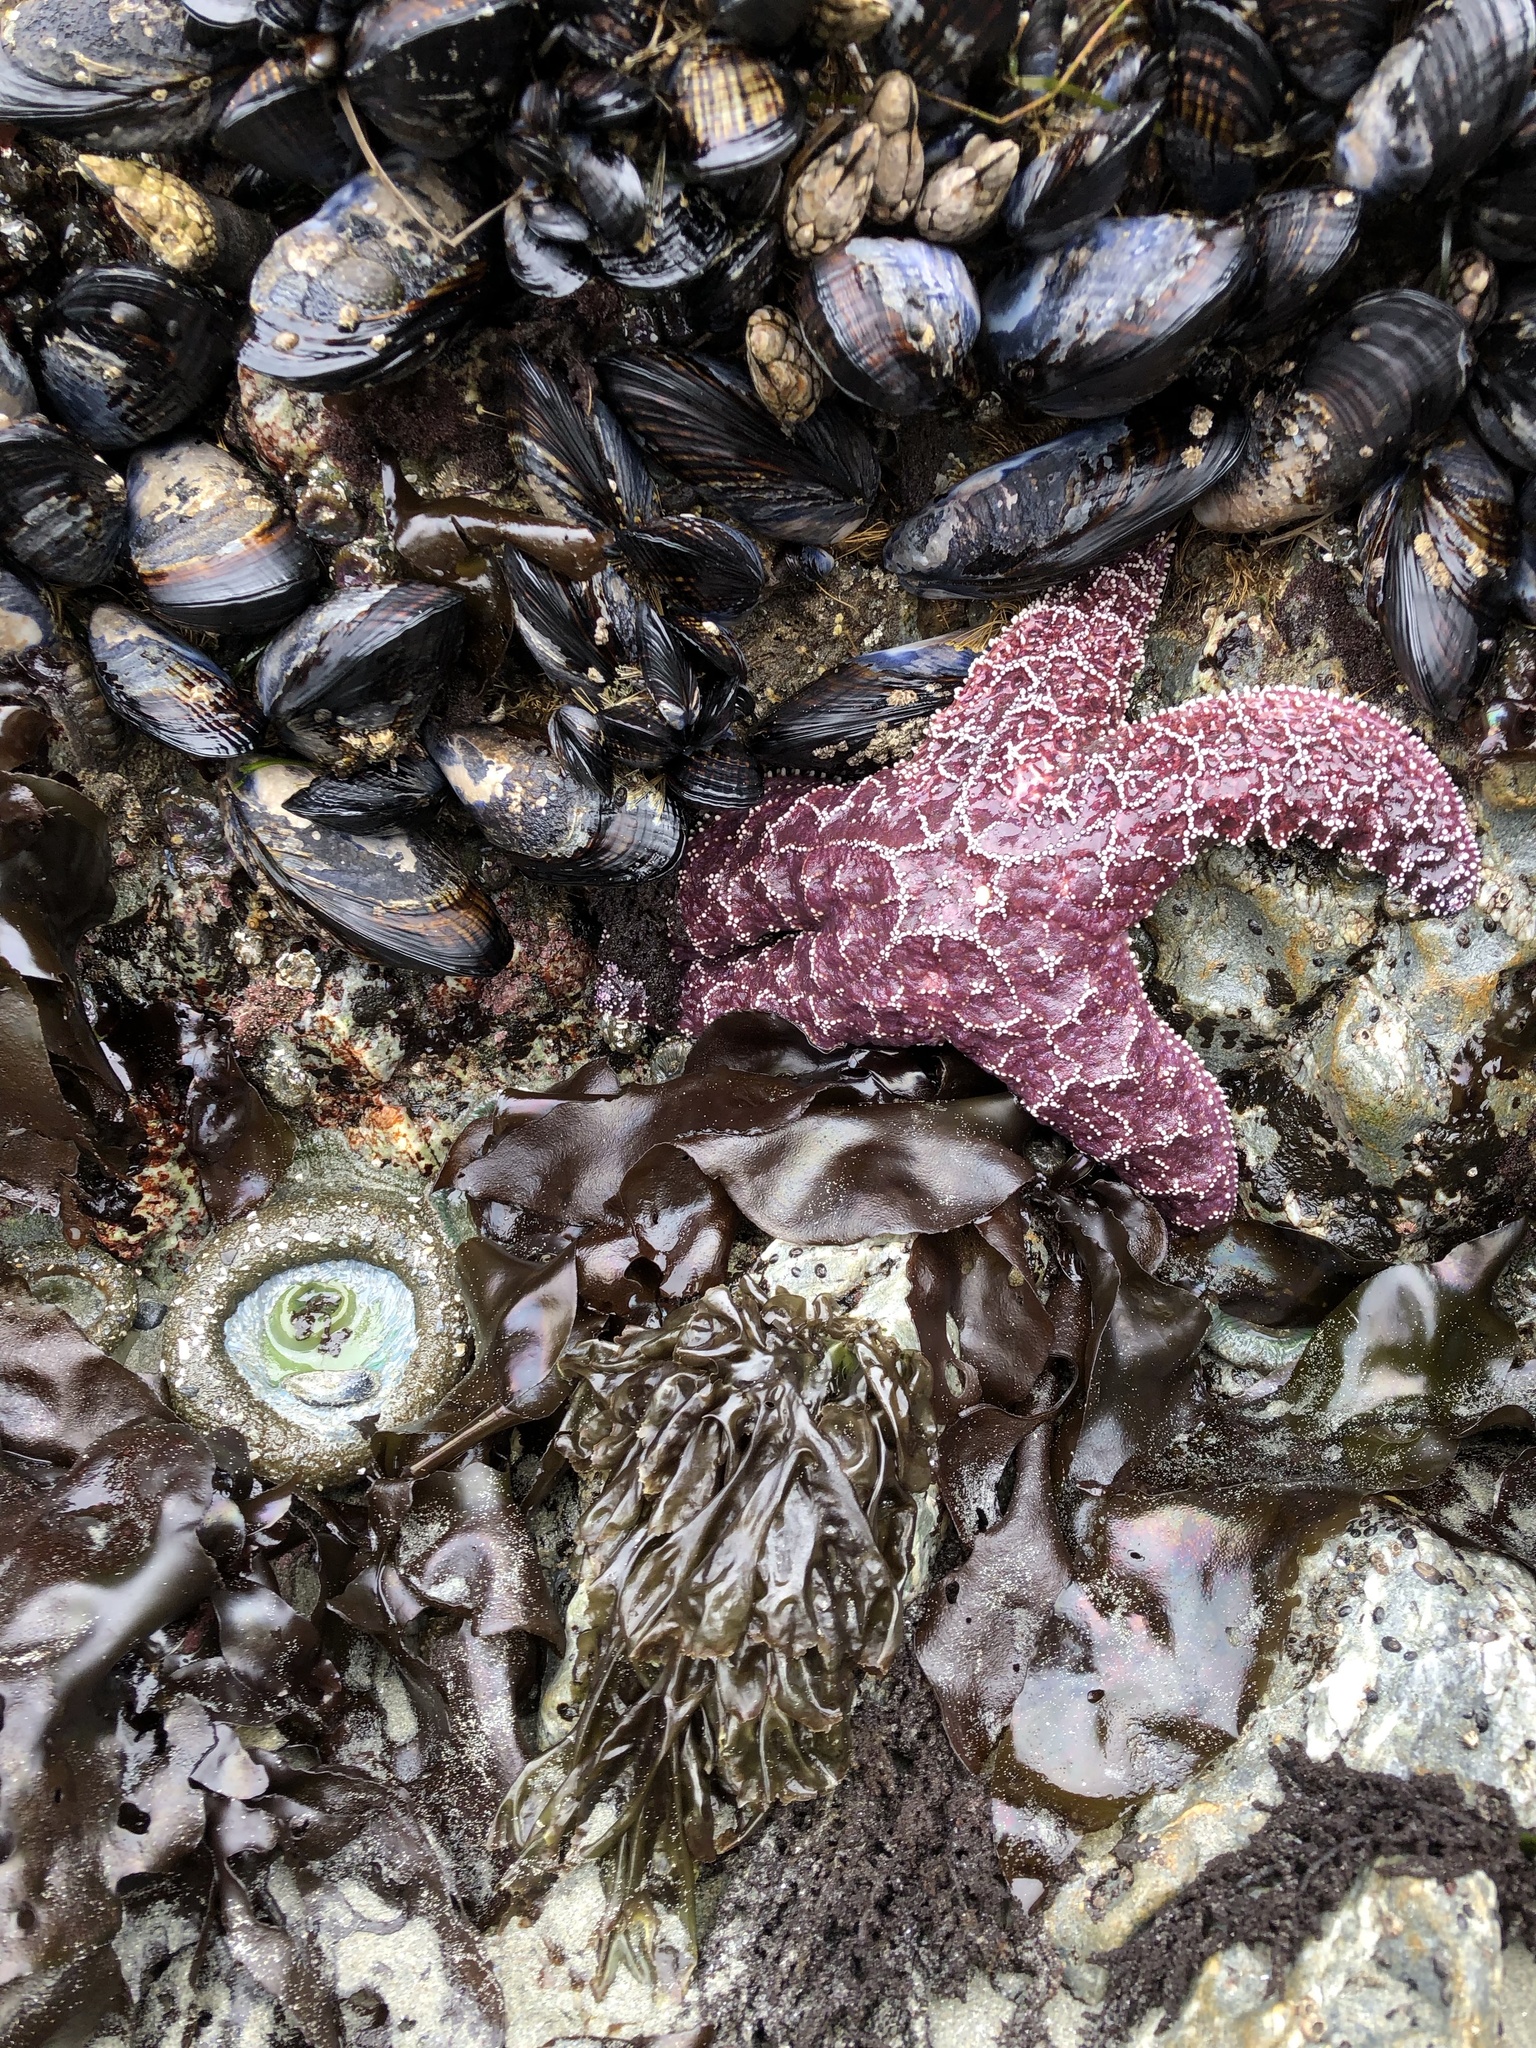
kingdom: Animalia
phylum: Echinodermata
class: Asteroidea
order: Forcipulatida
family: Asteriidae
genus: Pisaster
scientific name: Pisaster ochraceus
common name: Ochre stars
